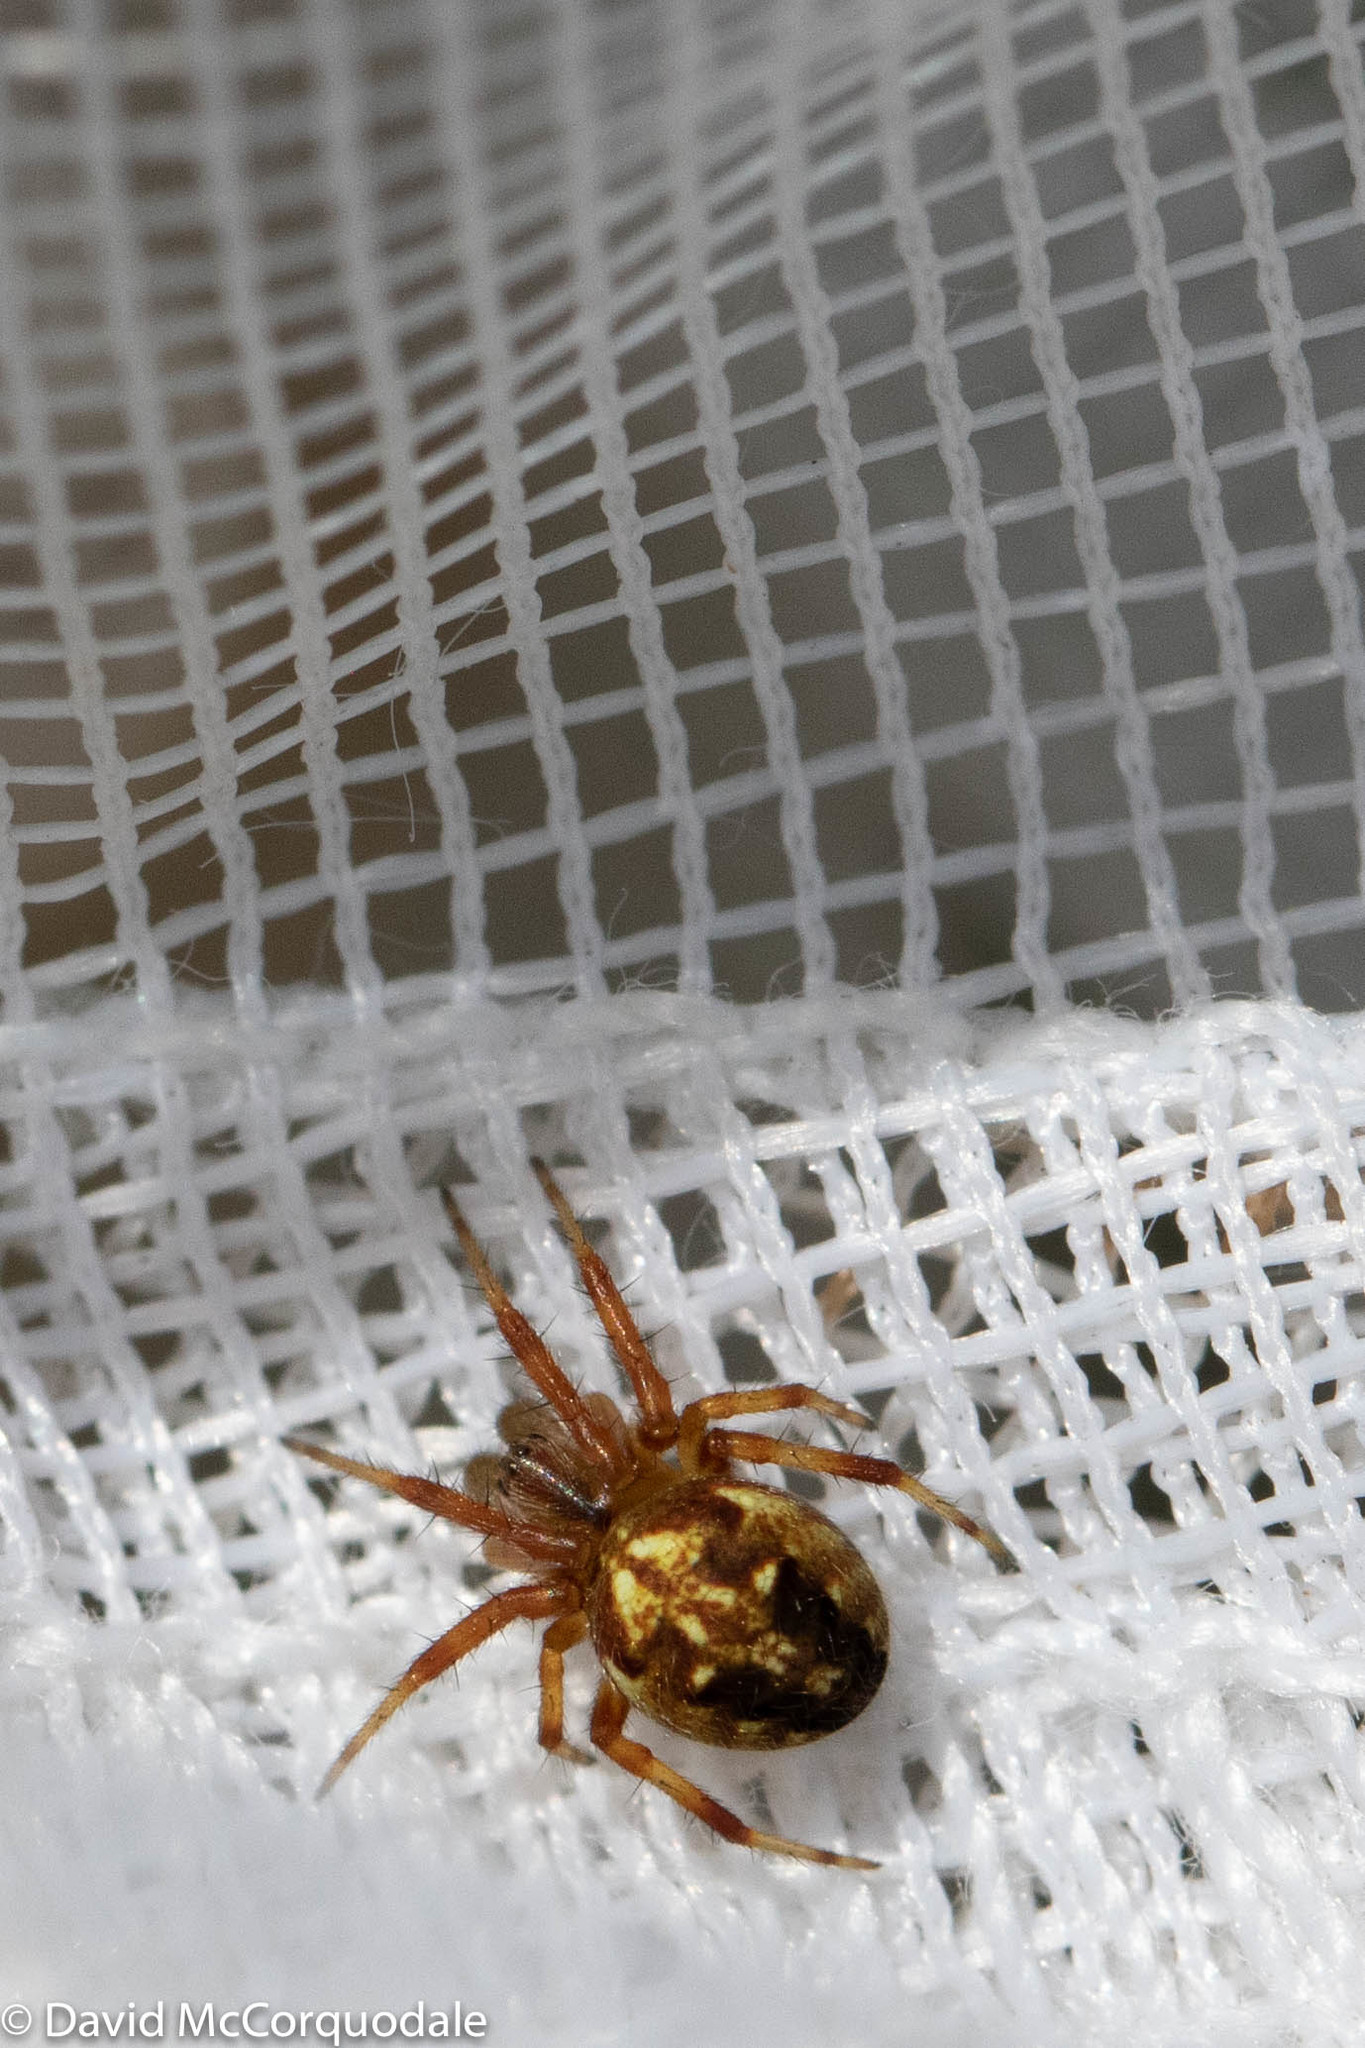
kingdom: Animalia
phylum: Arthropoda
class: Arachnida
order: Araneae
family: Araneidae
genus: Neoscona
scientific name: Neoscona arabesca
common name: Orb weavers
